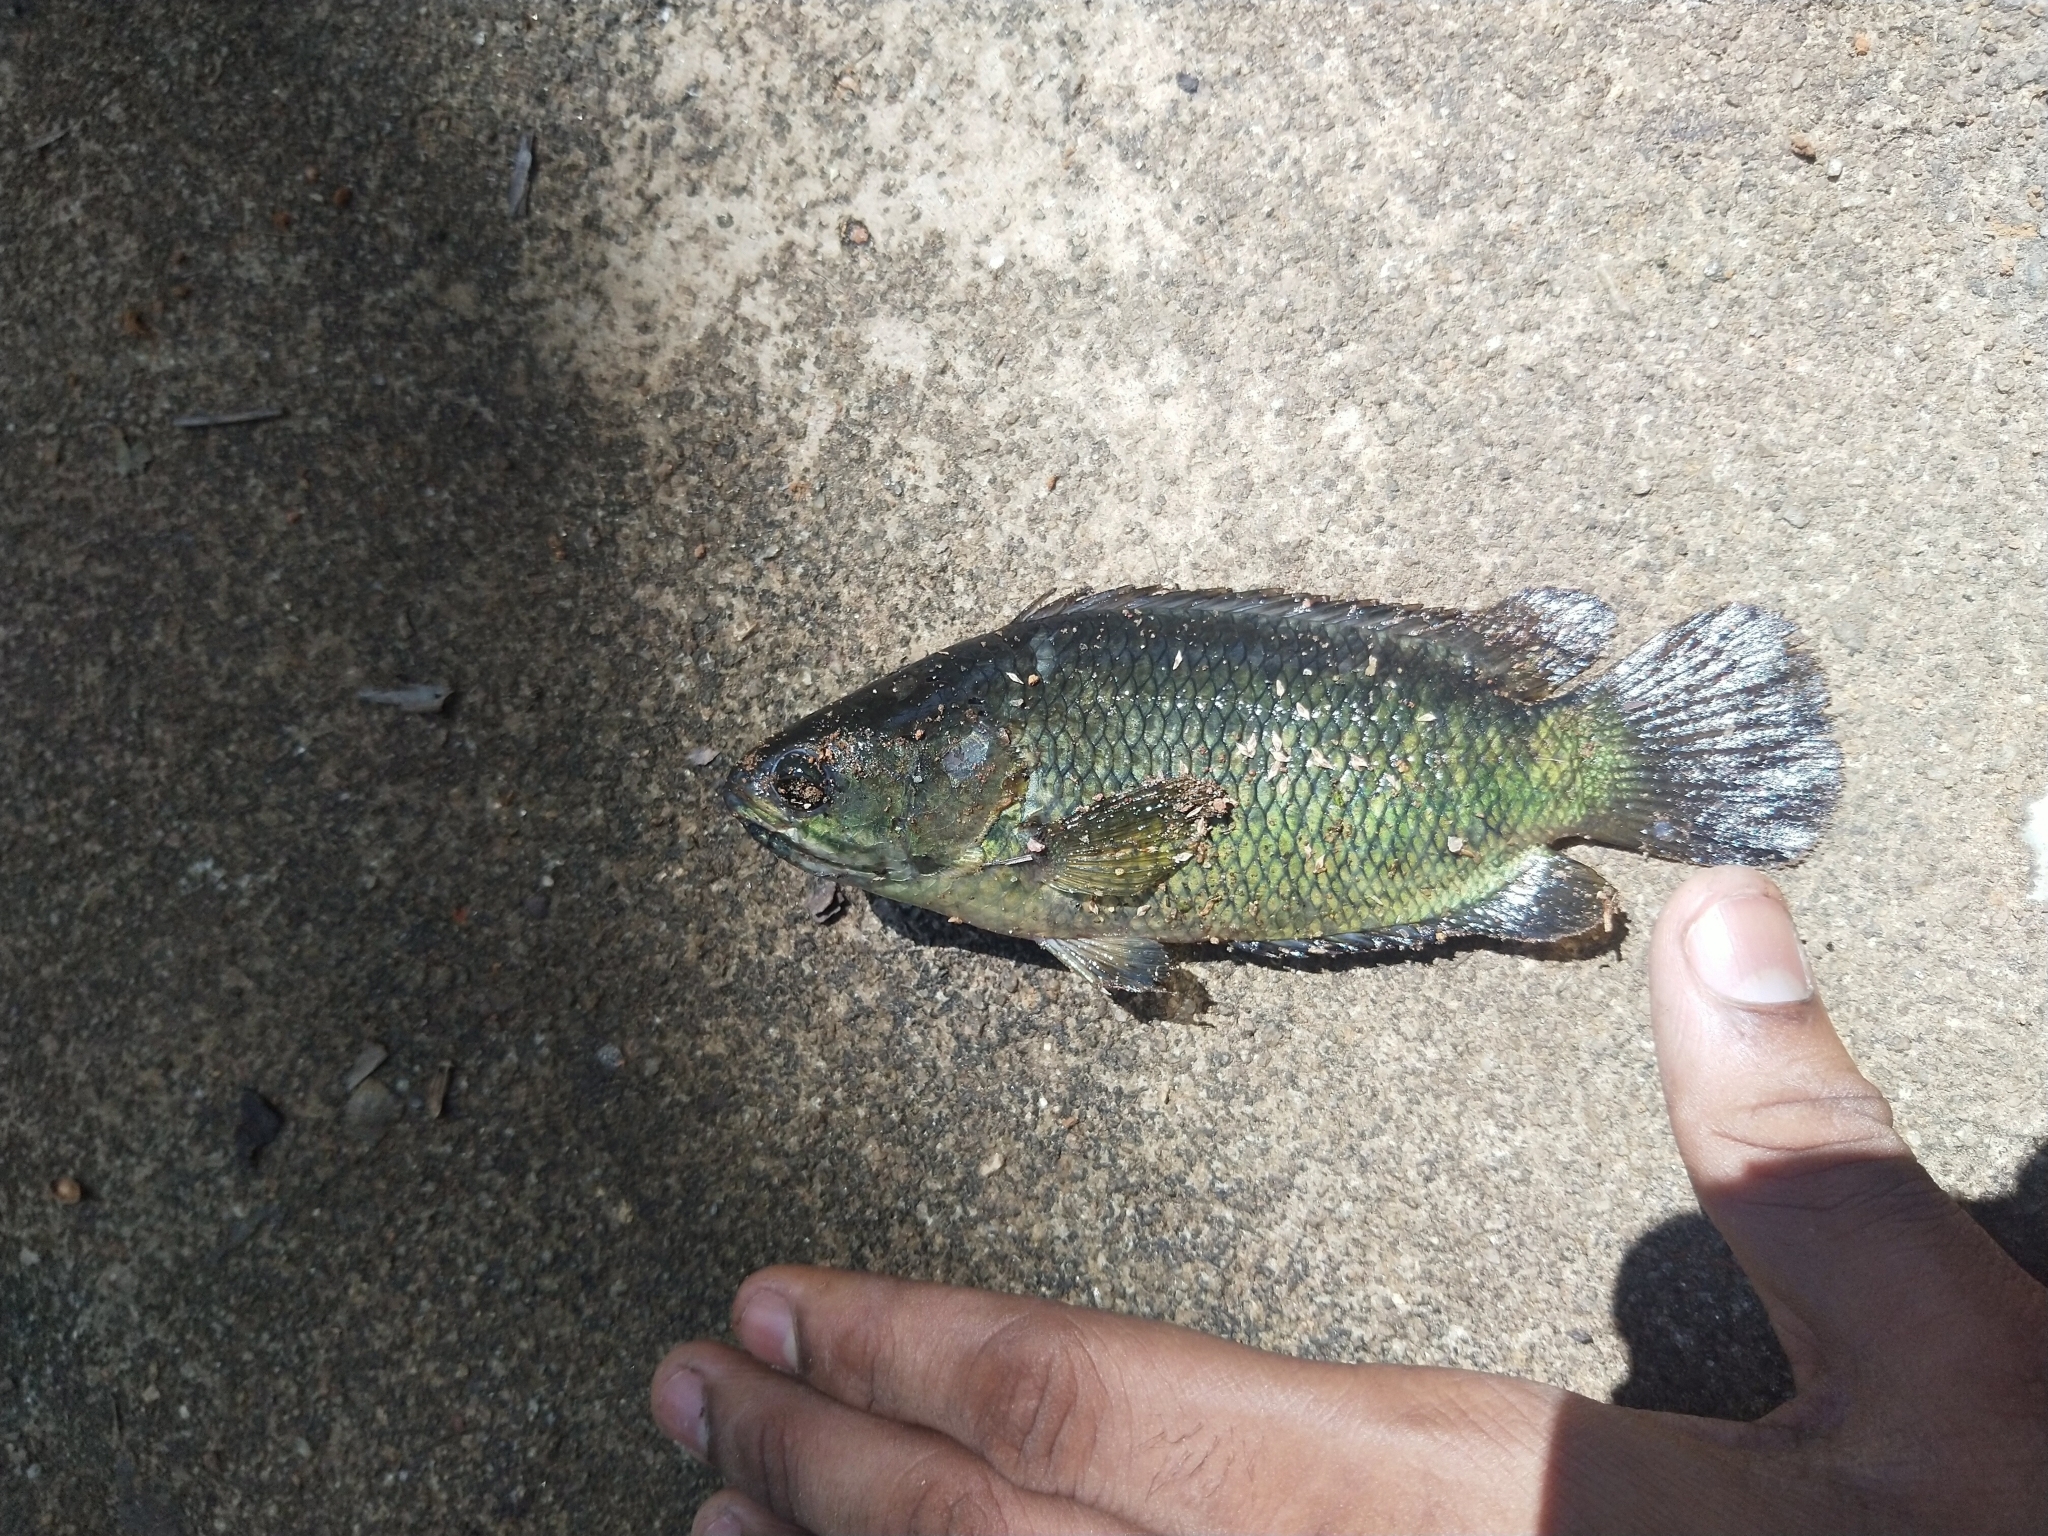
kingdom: Animalia
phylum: Chordata
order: Perciformes
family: Anabantidae
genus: Anabas
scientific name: Anabas testudineus
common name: Climbing perch
